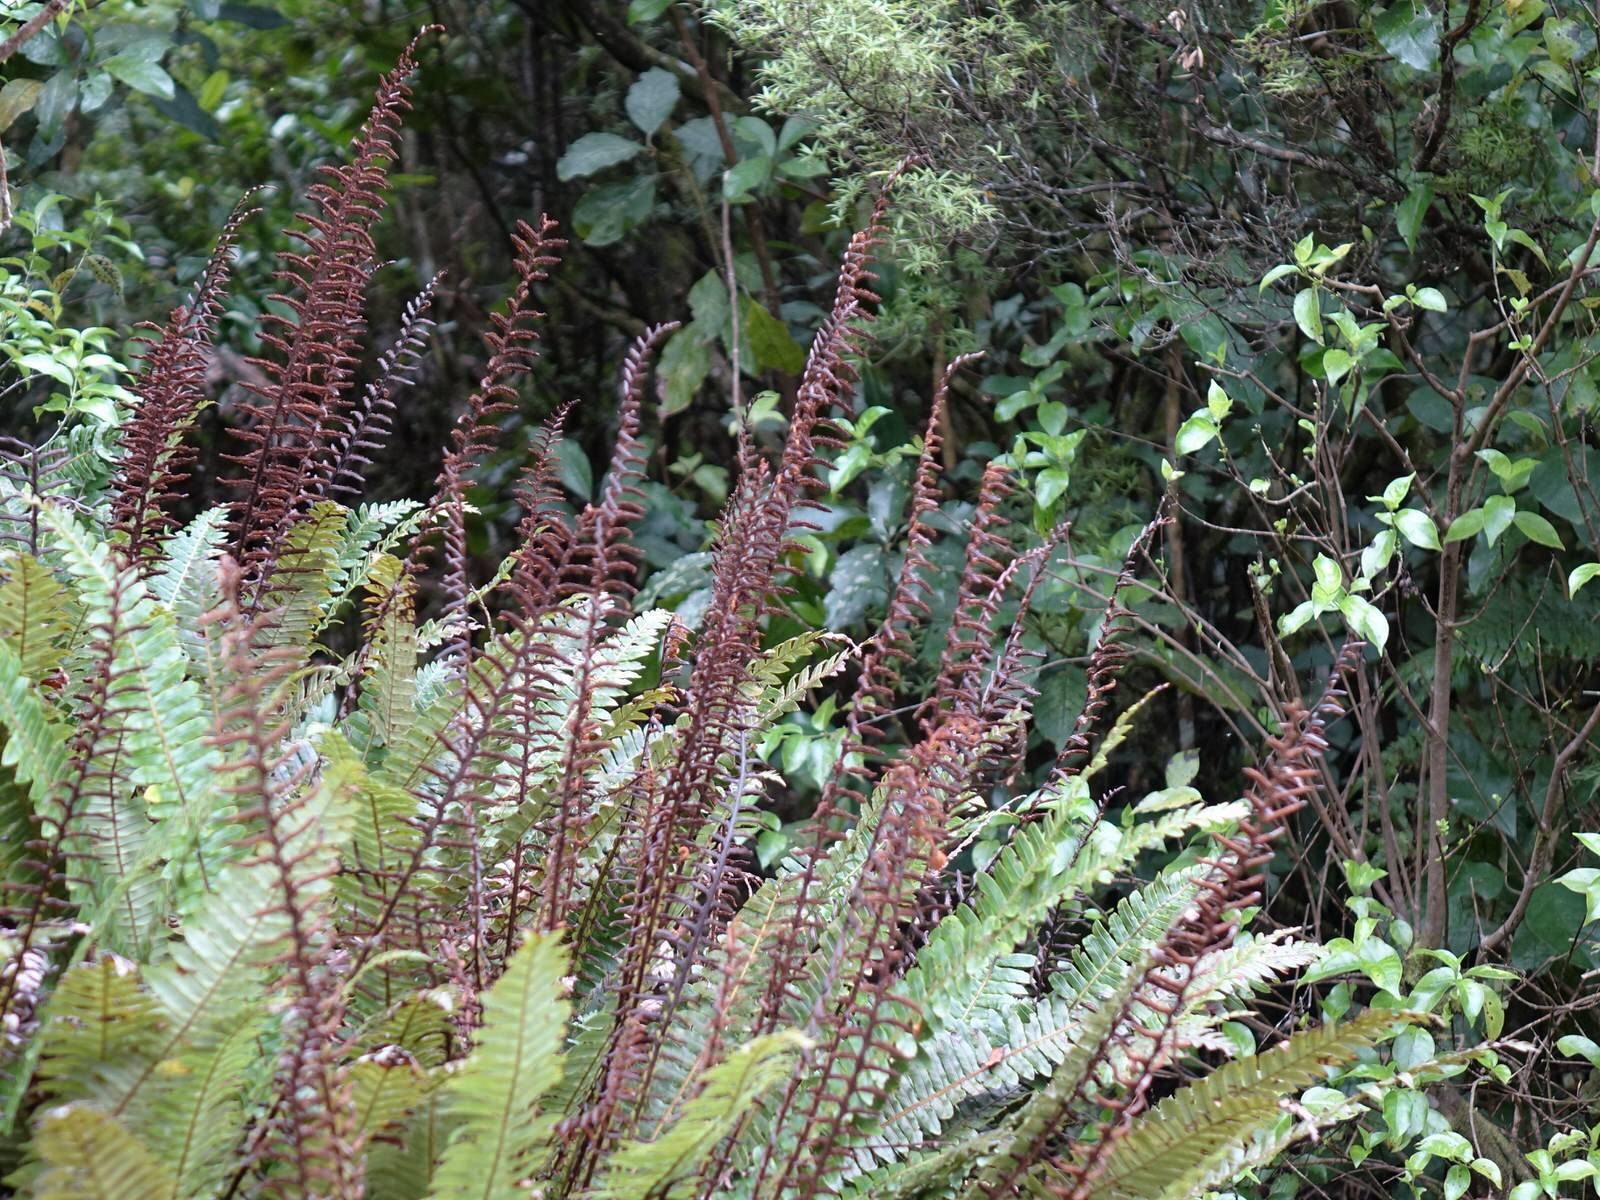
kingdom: Plantae
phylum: Tracheophyta
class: Polypodiopsida
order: Polypodiales
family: Blechnaceae
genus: Lomaria
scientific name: Lomaria discolor
